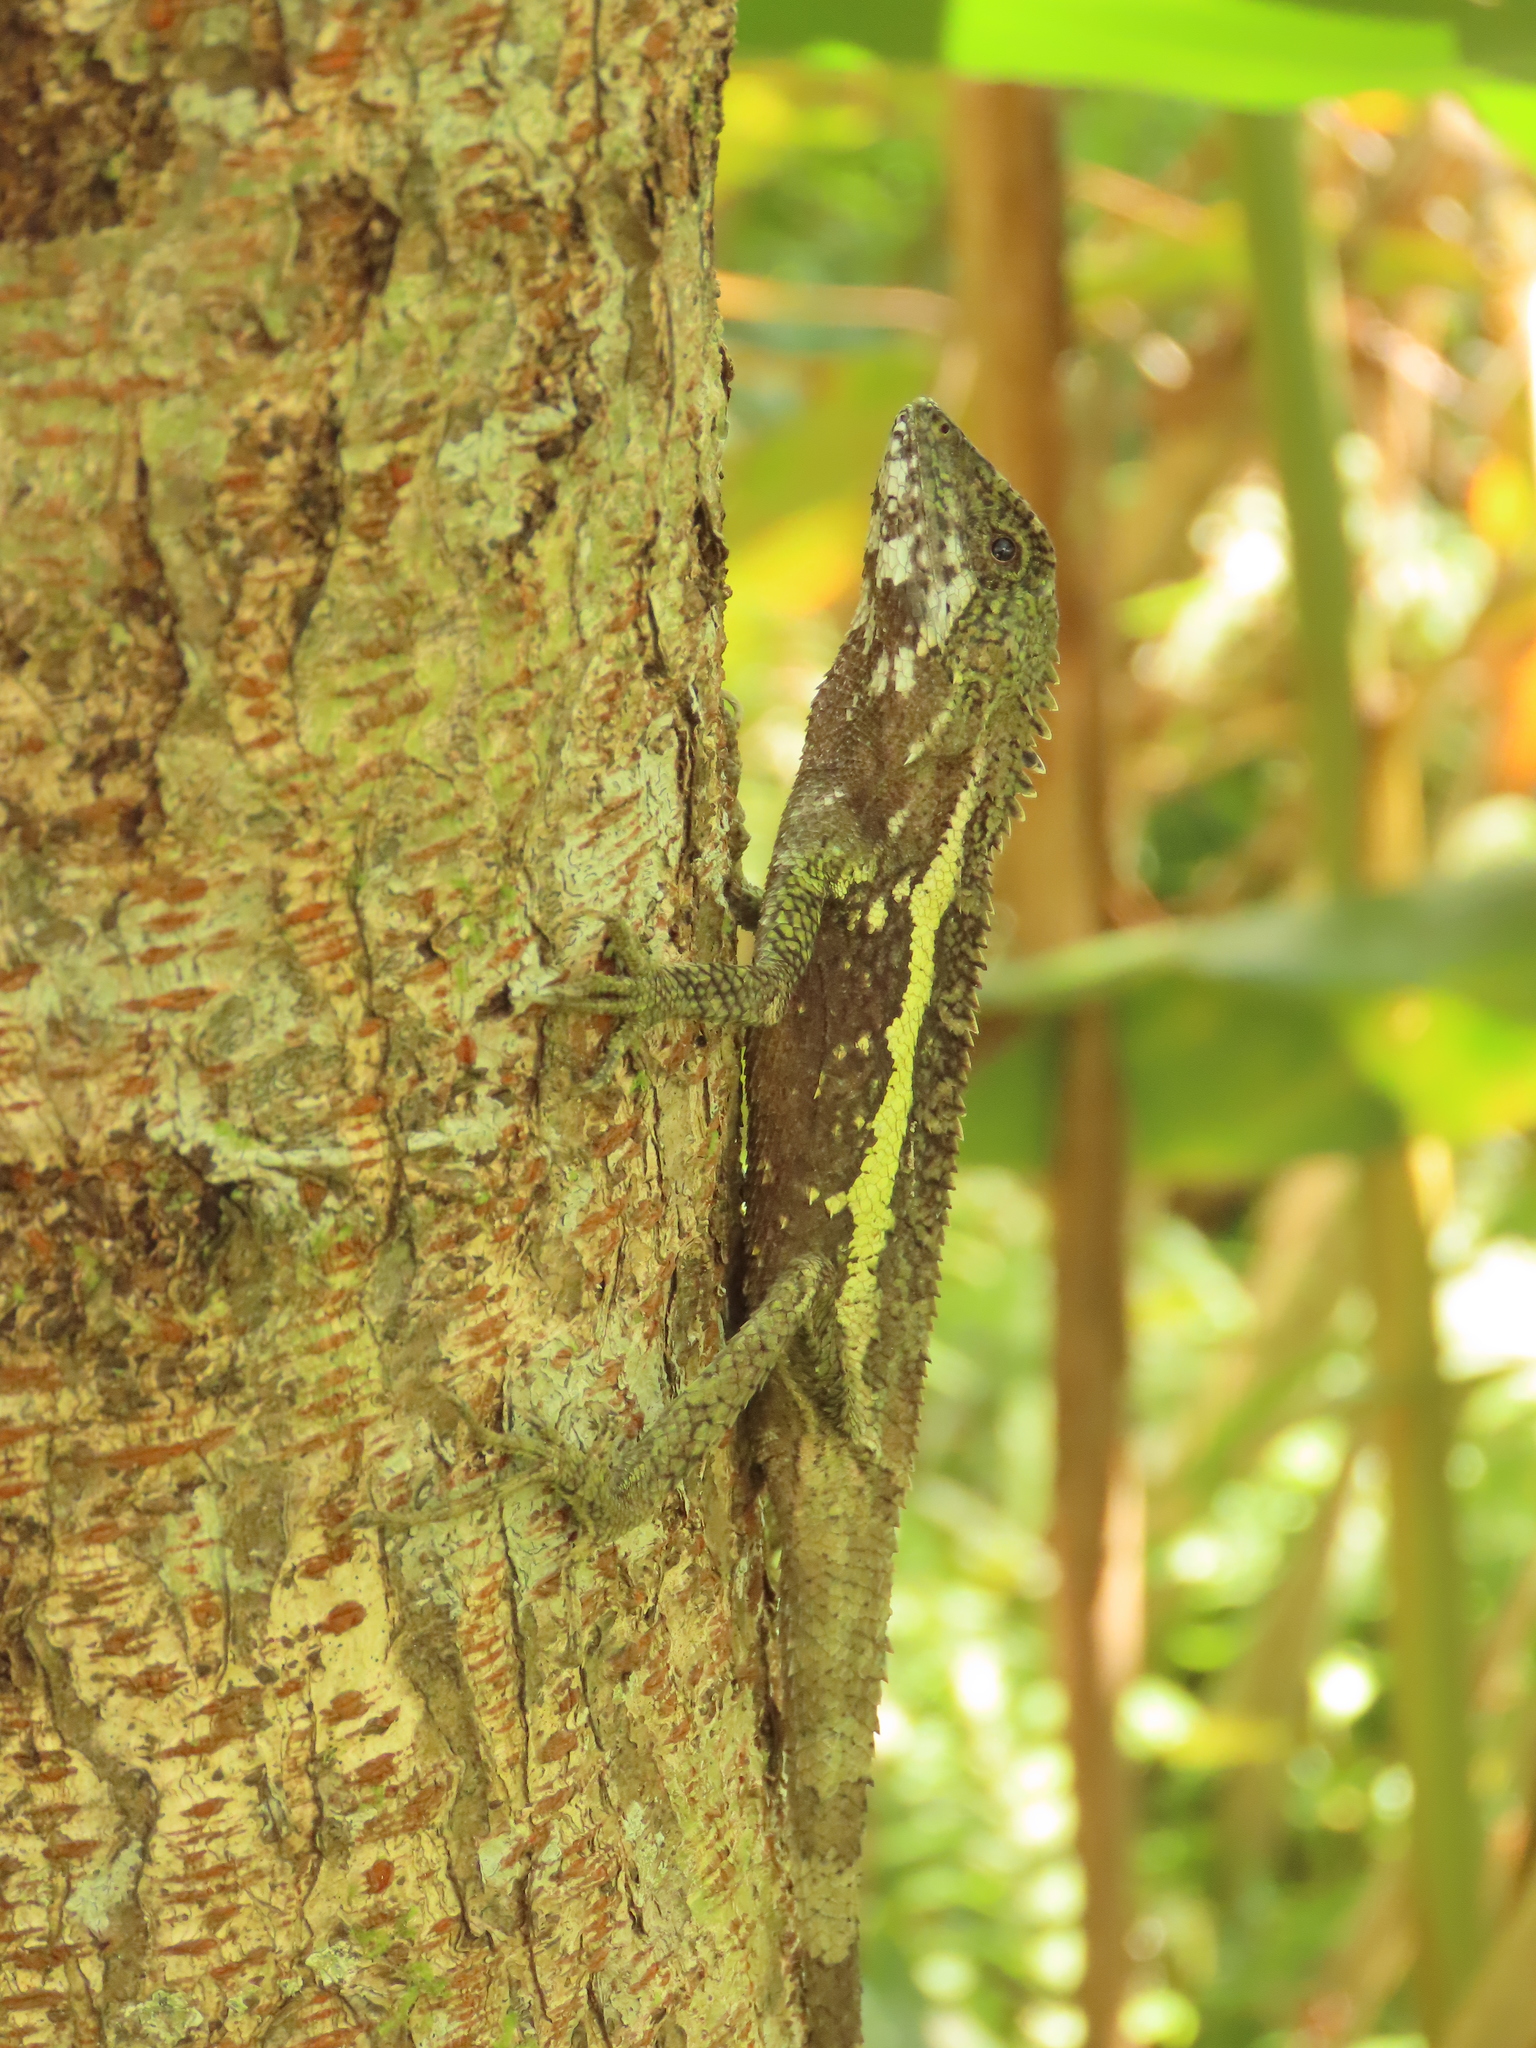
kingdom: Animalia
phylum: Chordata
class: Squamata
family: Agamidae
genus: Diploderma
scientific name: Diploderma swinhonis
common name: Taiwan japalure
